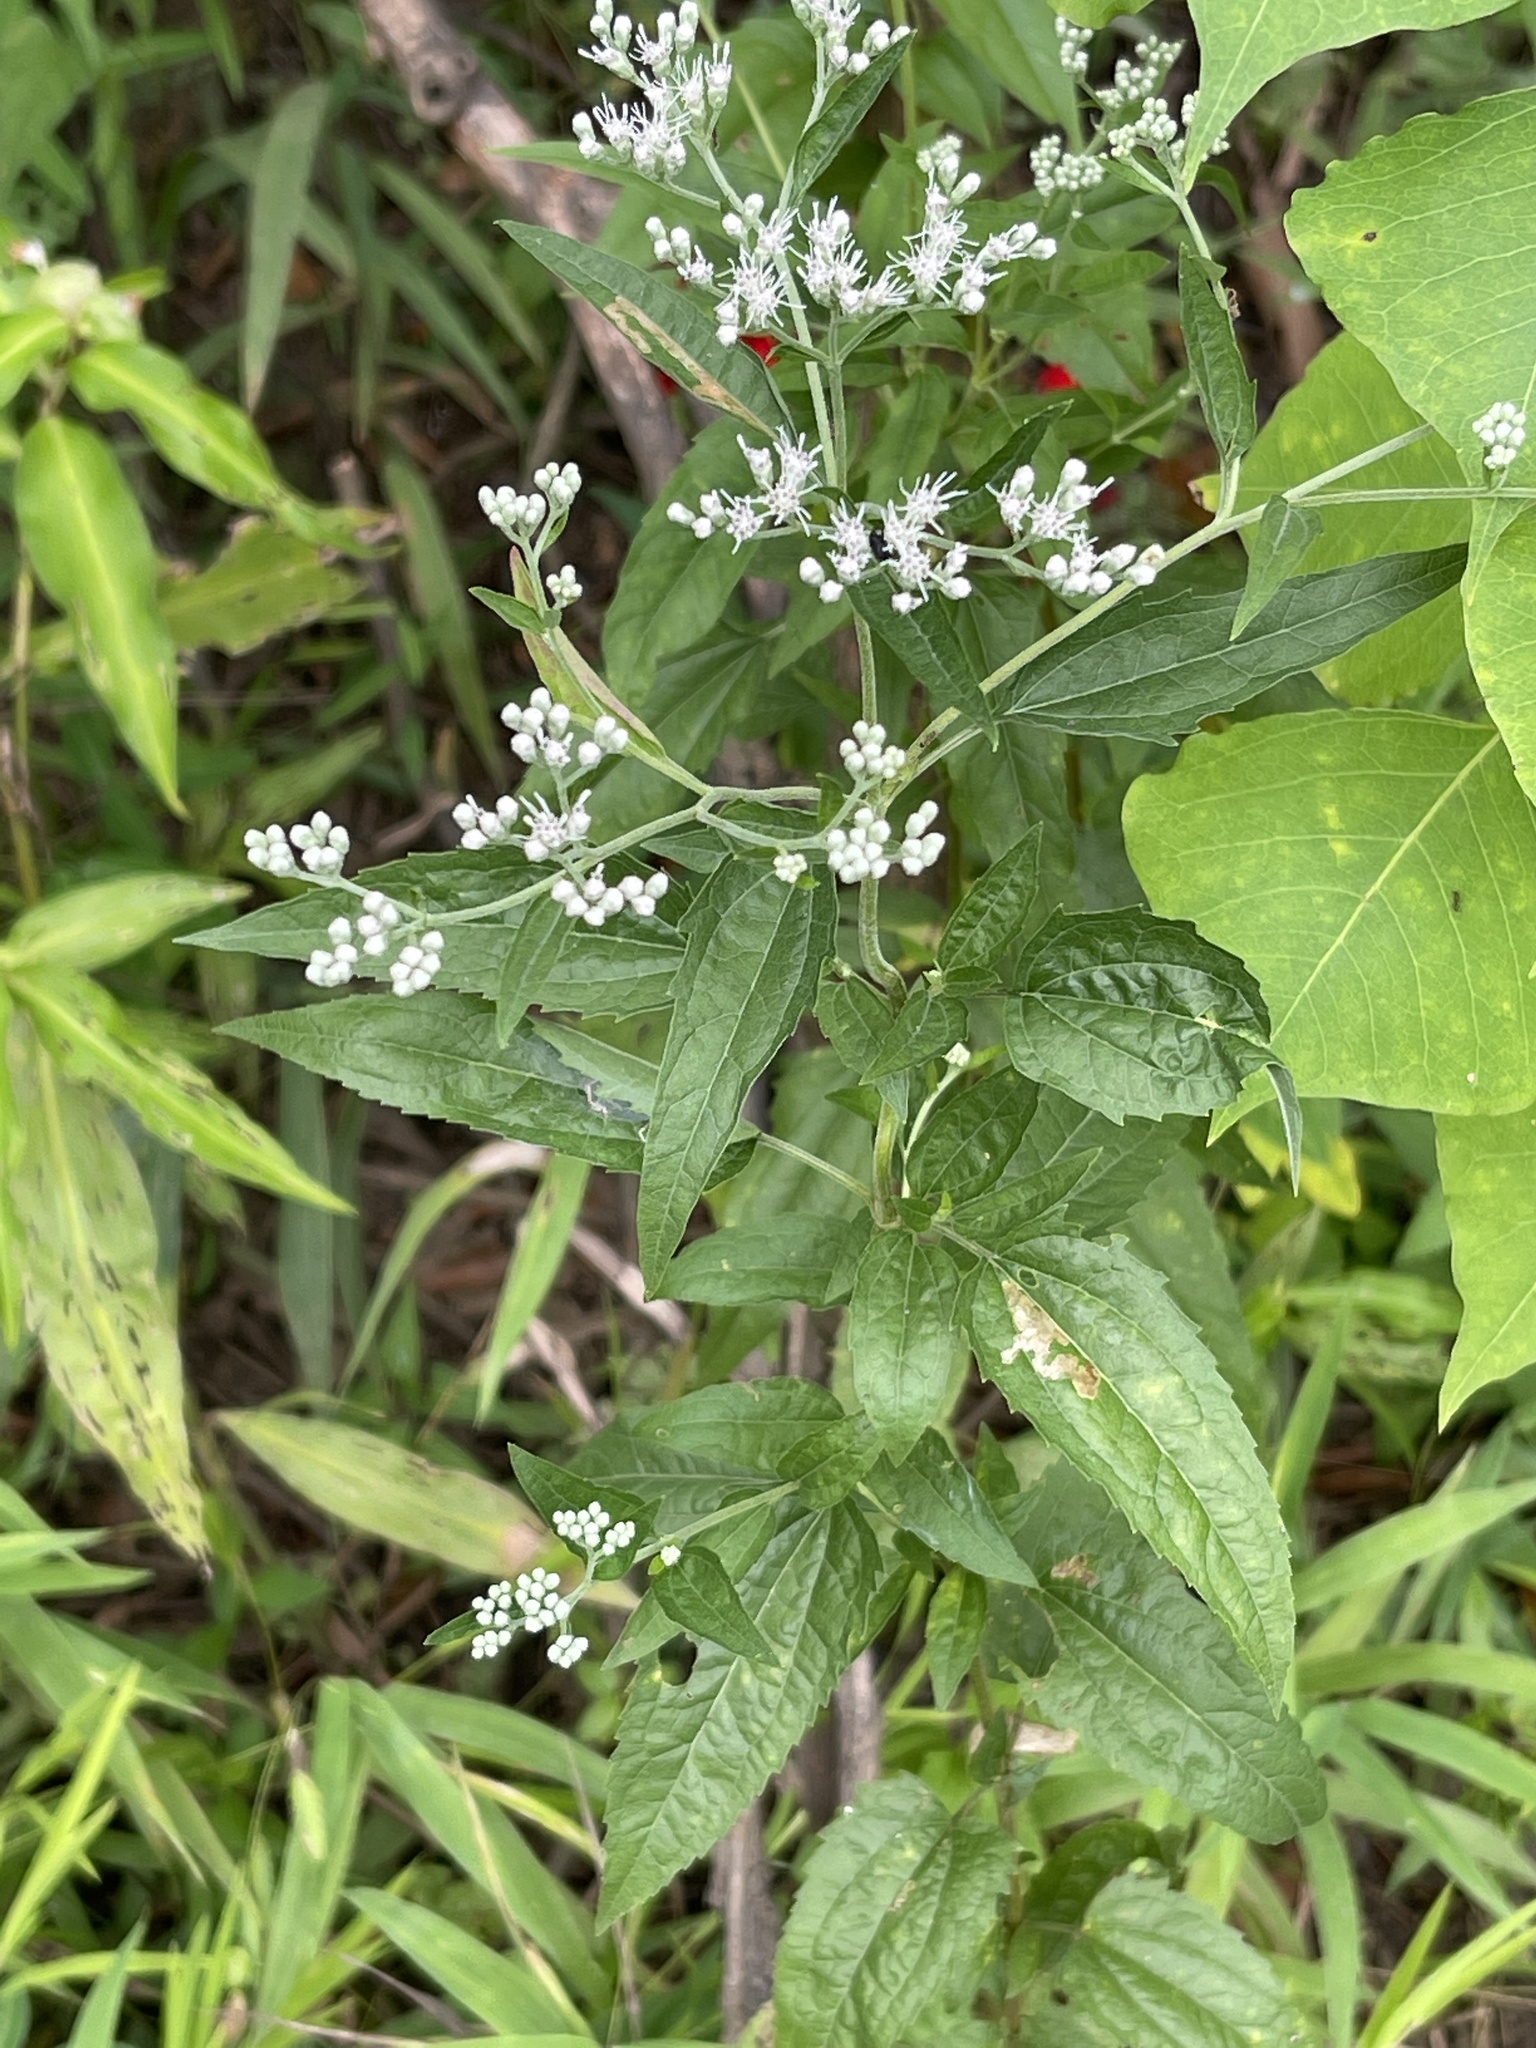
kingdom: Plantae
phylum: Tracheophyta
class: Magnoliopsida
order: Asterales
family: Asteraceae
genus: Eupatorium
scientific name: Eupatorium serotinum
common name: Late boneset
